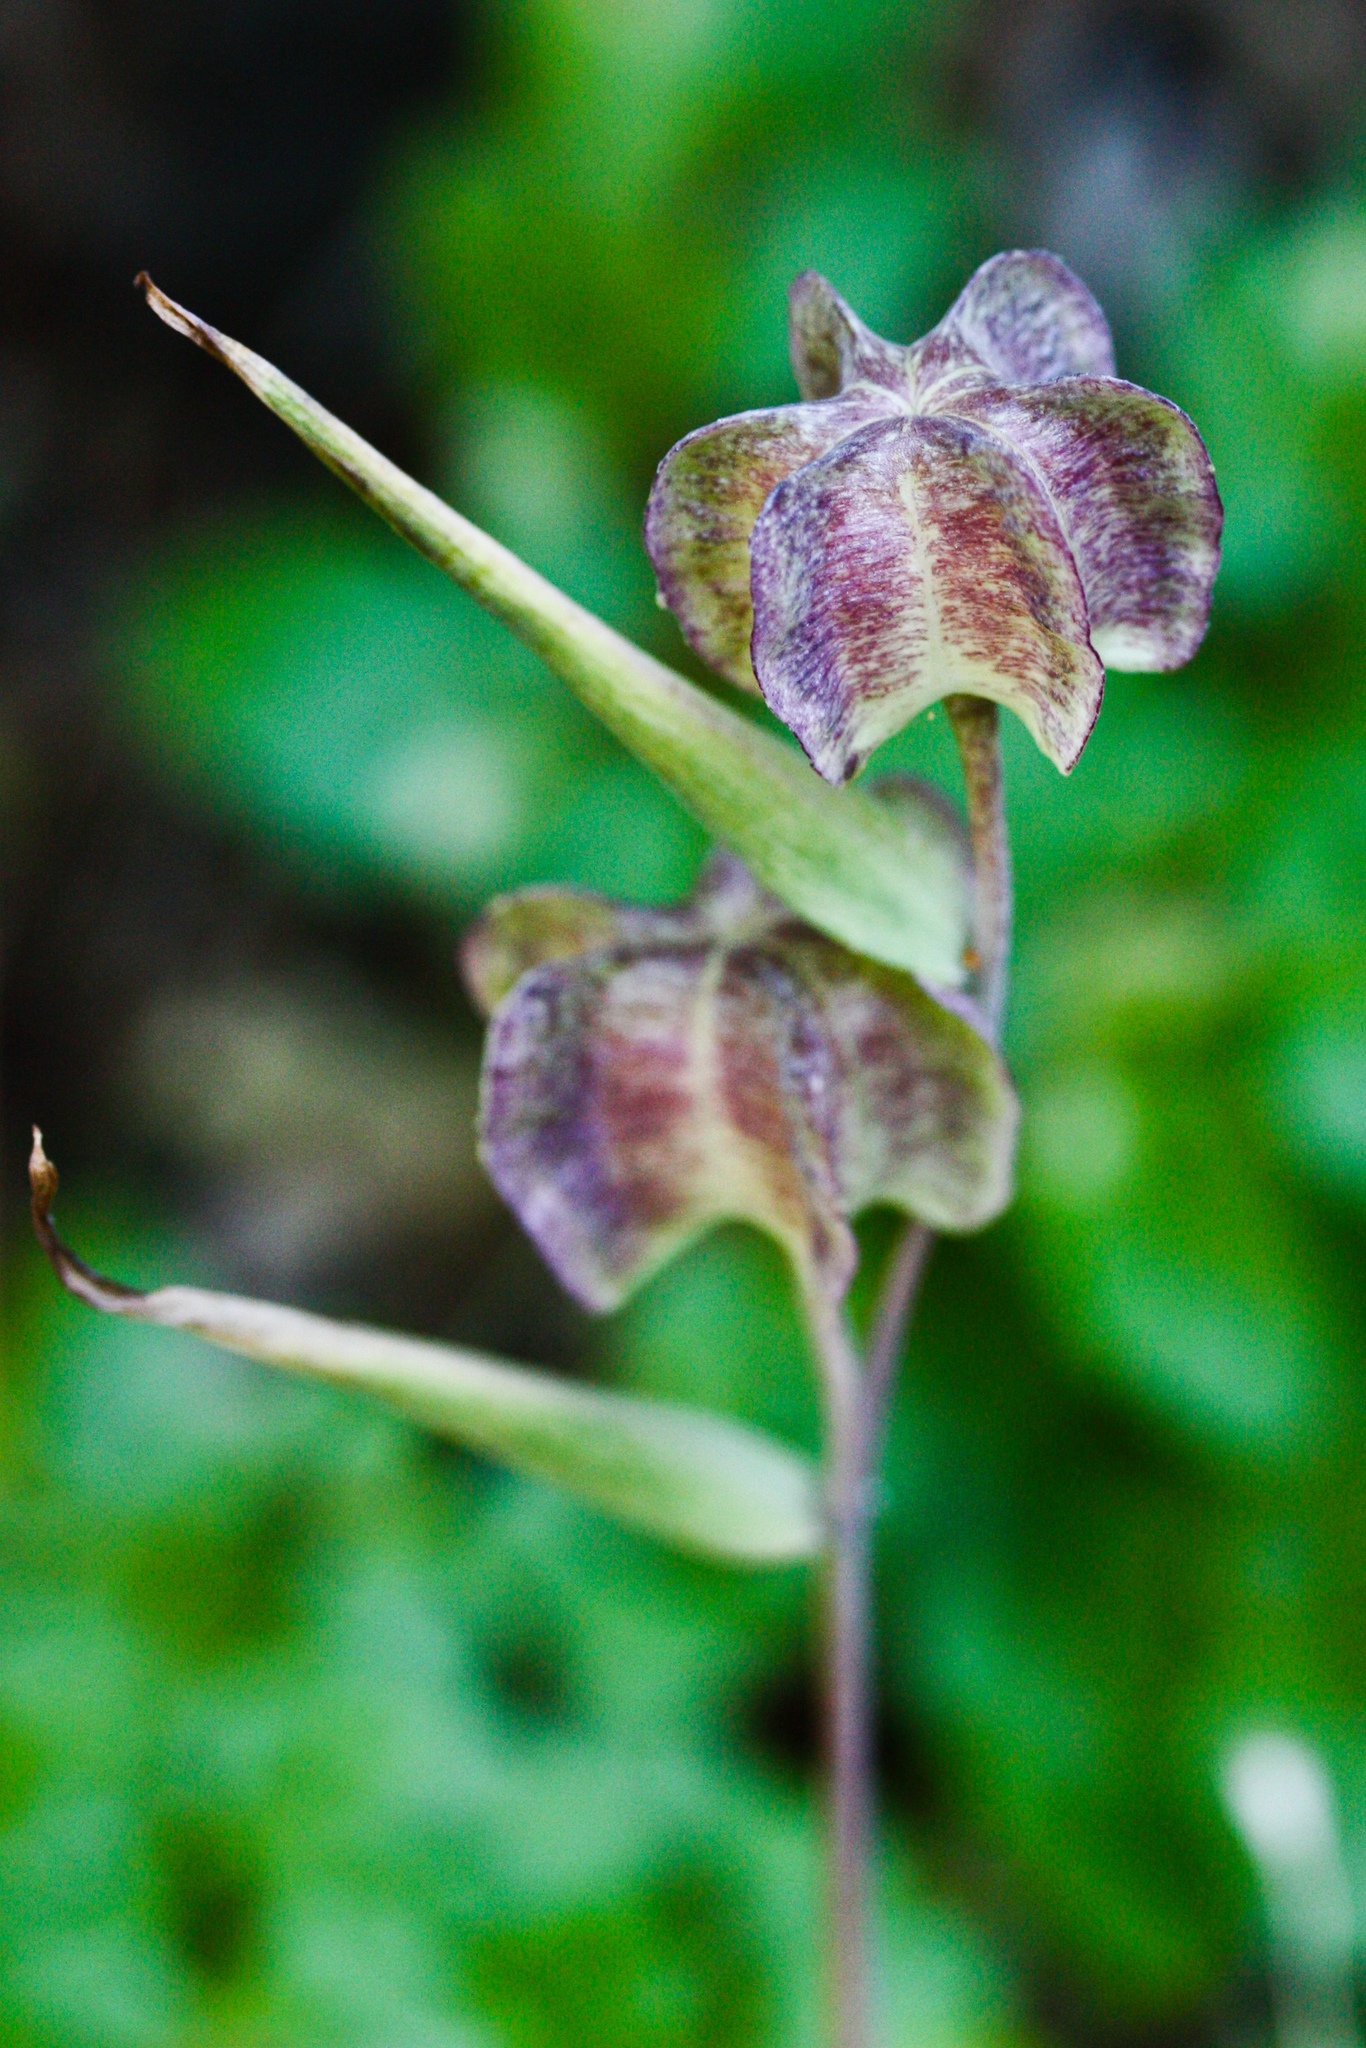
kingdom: Plantae
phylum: Tracheophyta
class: Liliopsida
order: Liliales
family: Liliaceae
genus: Fritillaria
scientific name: Fritillaria affinis
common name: Ojai fritillary
